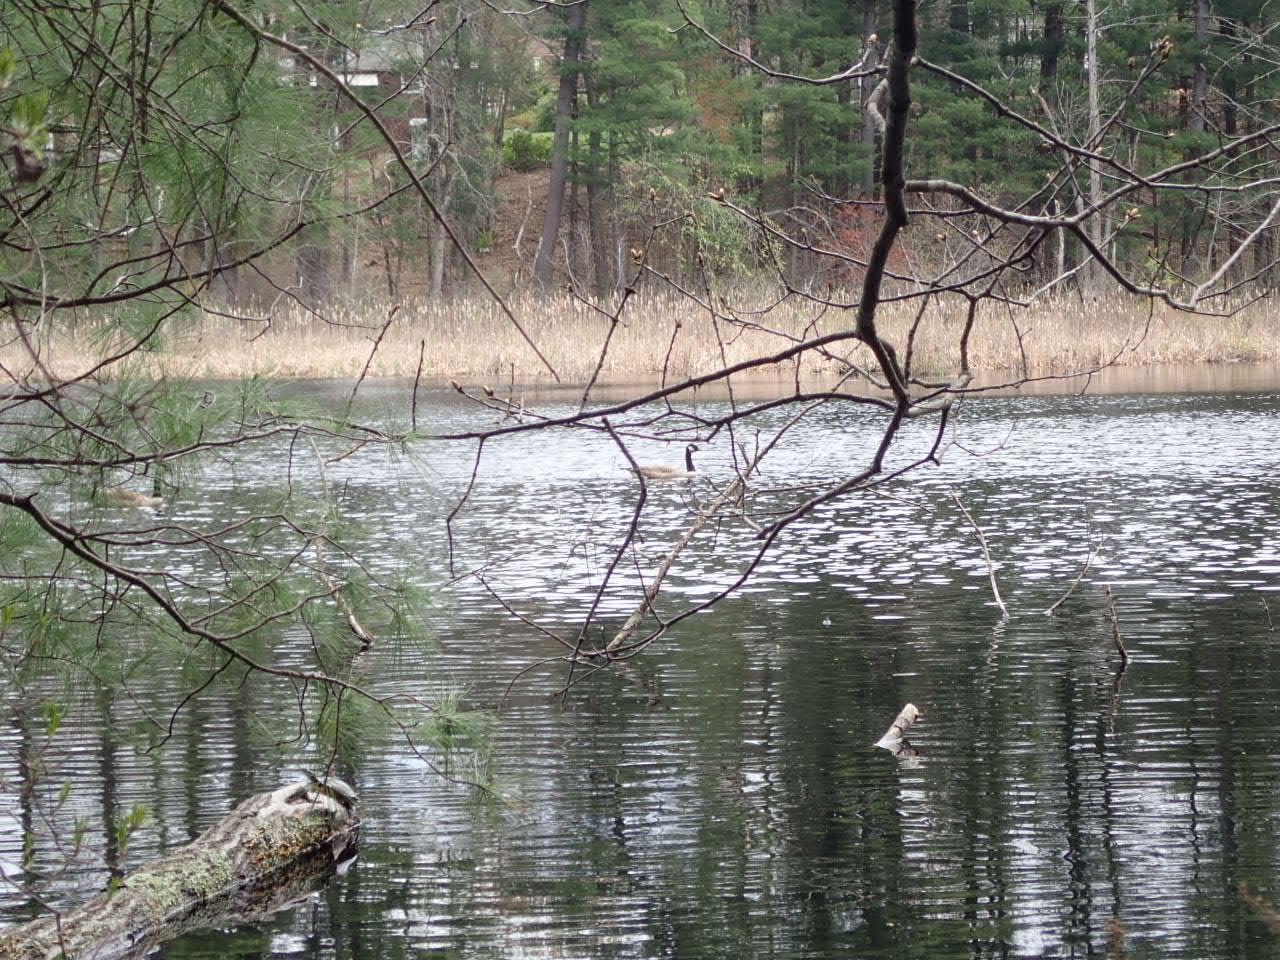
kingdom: Animalia
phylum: Chordata
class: Aves
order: Anseriformes
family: Anatidae
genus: Branta
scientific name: Branta canadensis
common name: Canada goose
